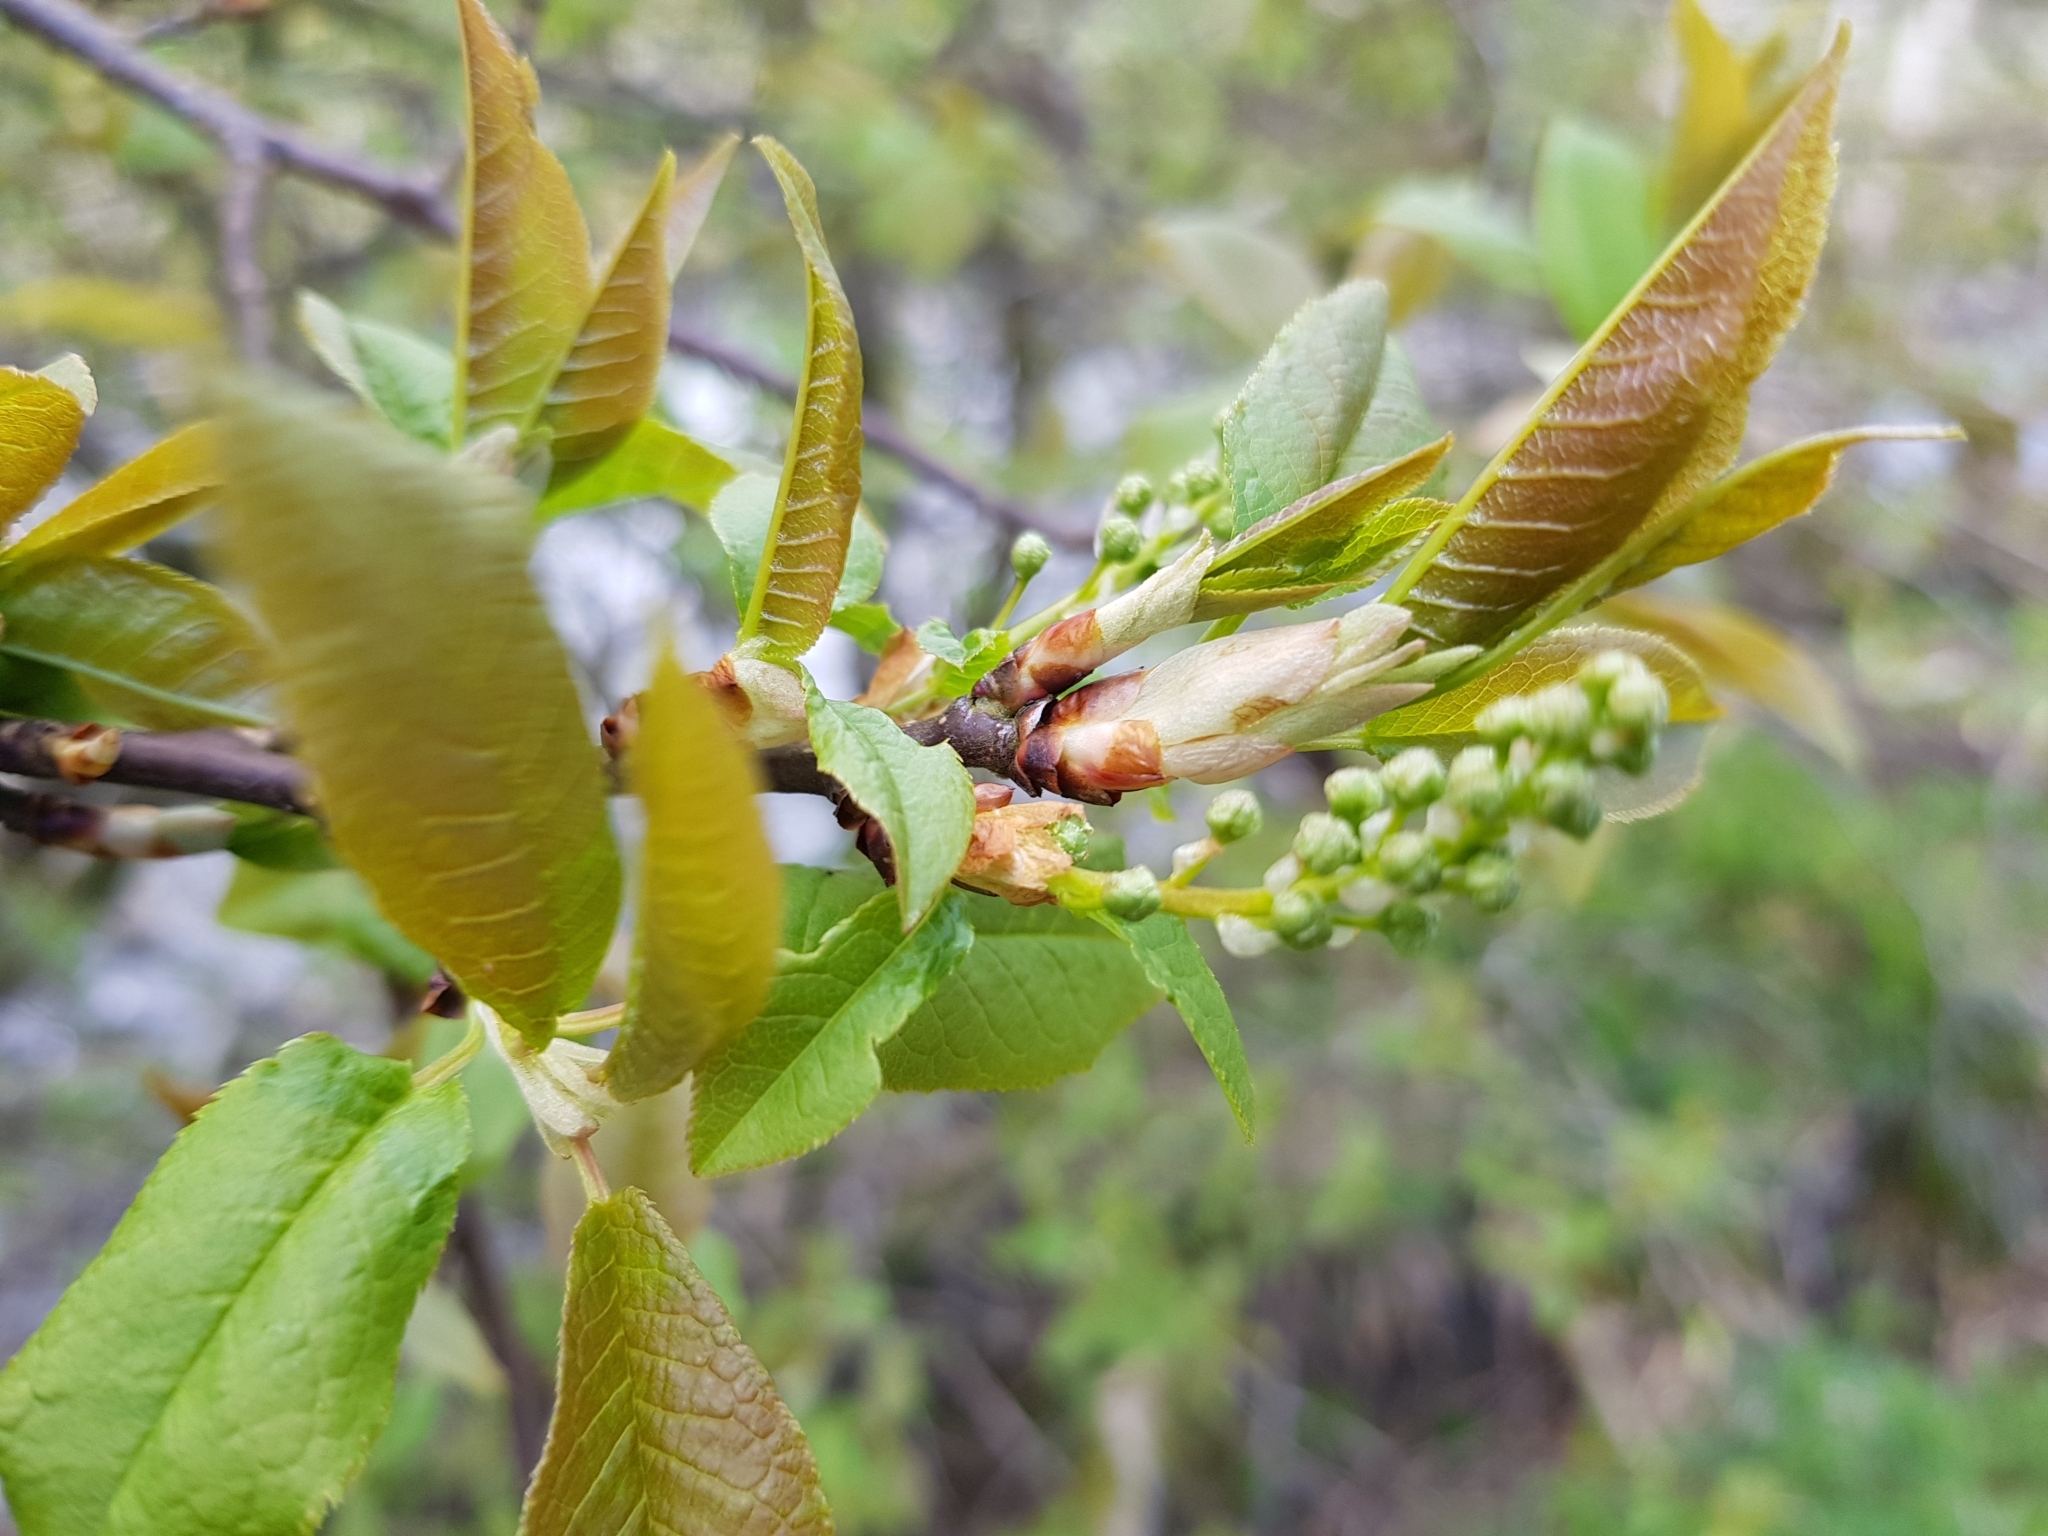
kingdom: Plantae
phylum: Tracheophyta
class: Magnoliopsida
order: Rosales
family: Rosaceae
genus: Prunus
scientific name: Prunus padus
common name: Bird cherry
